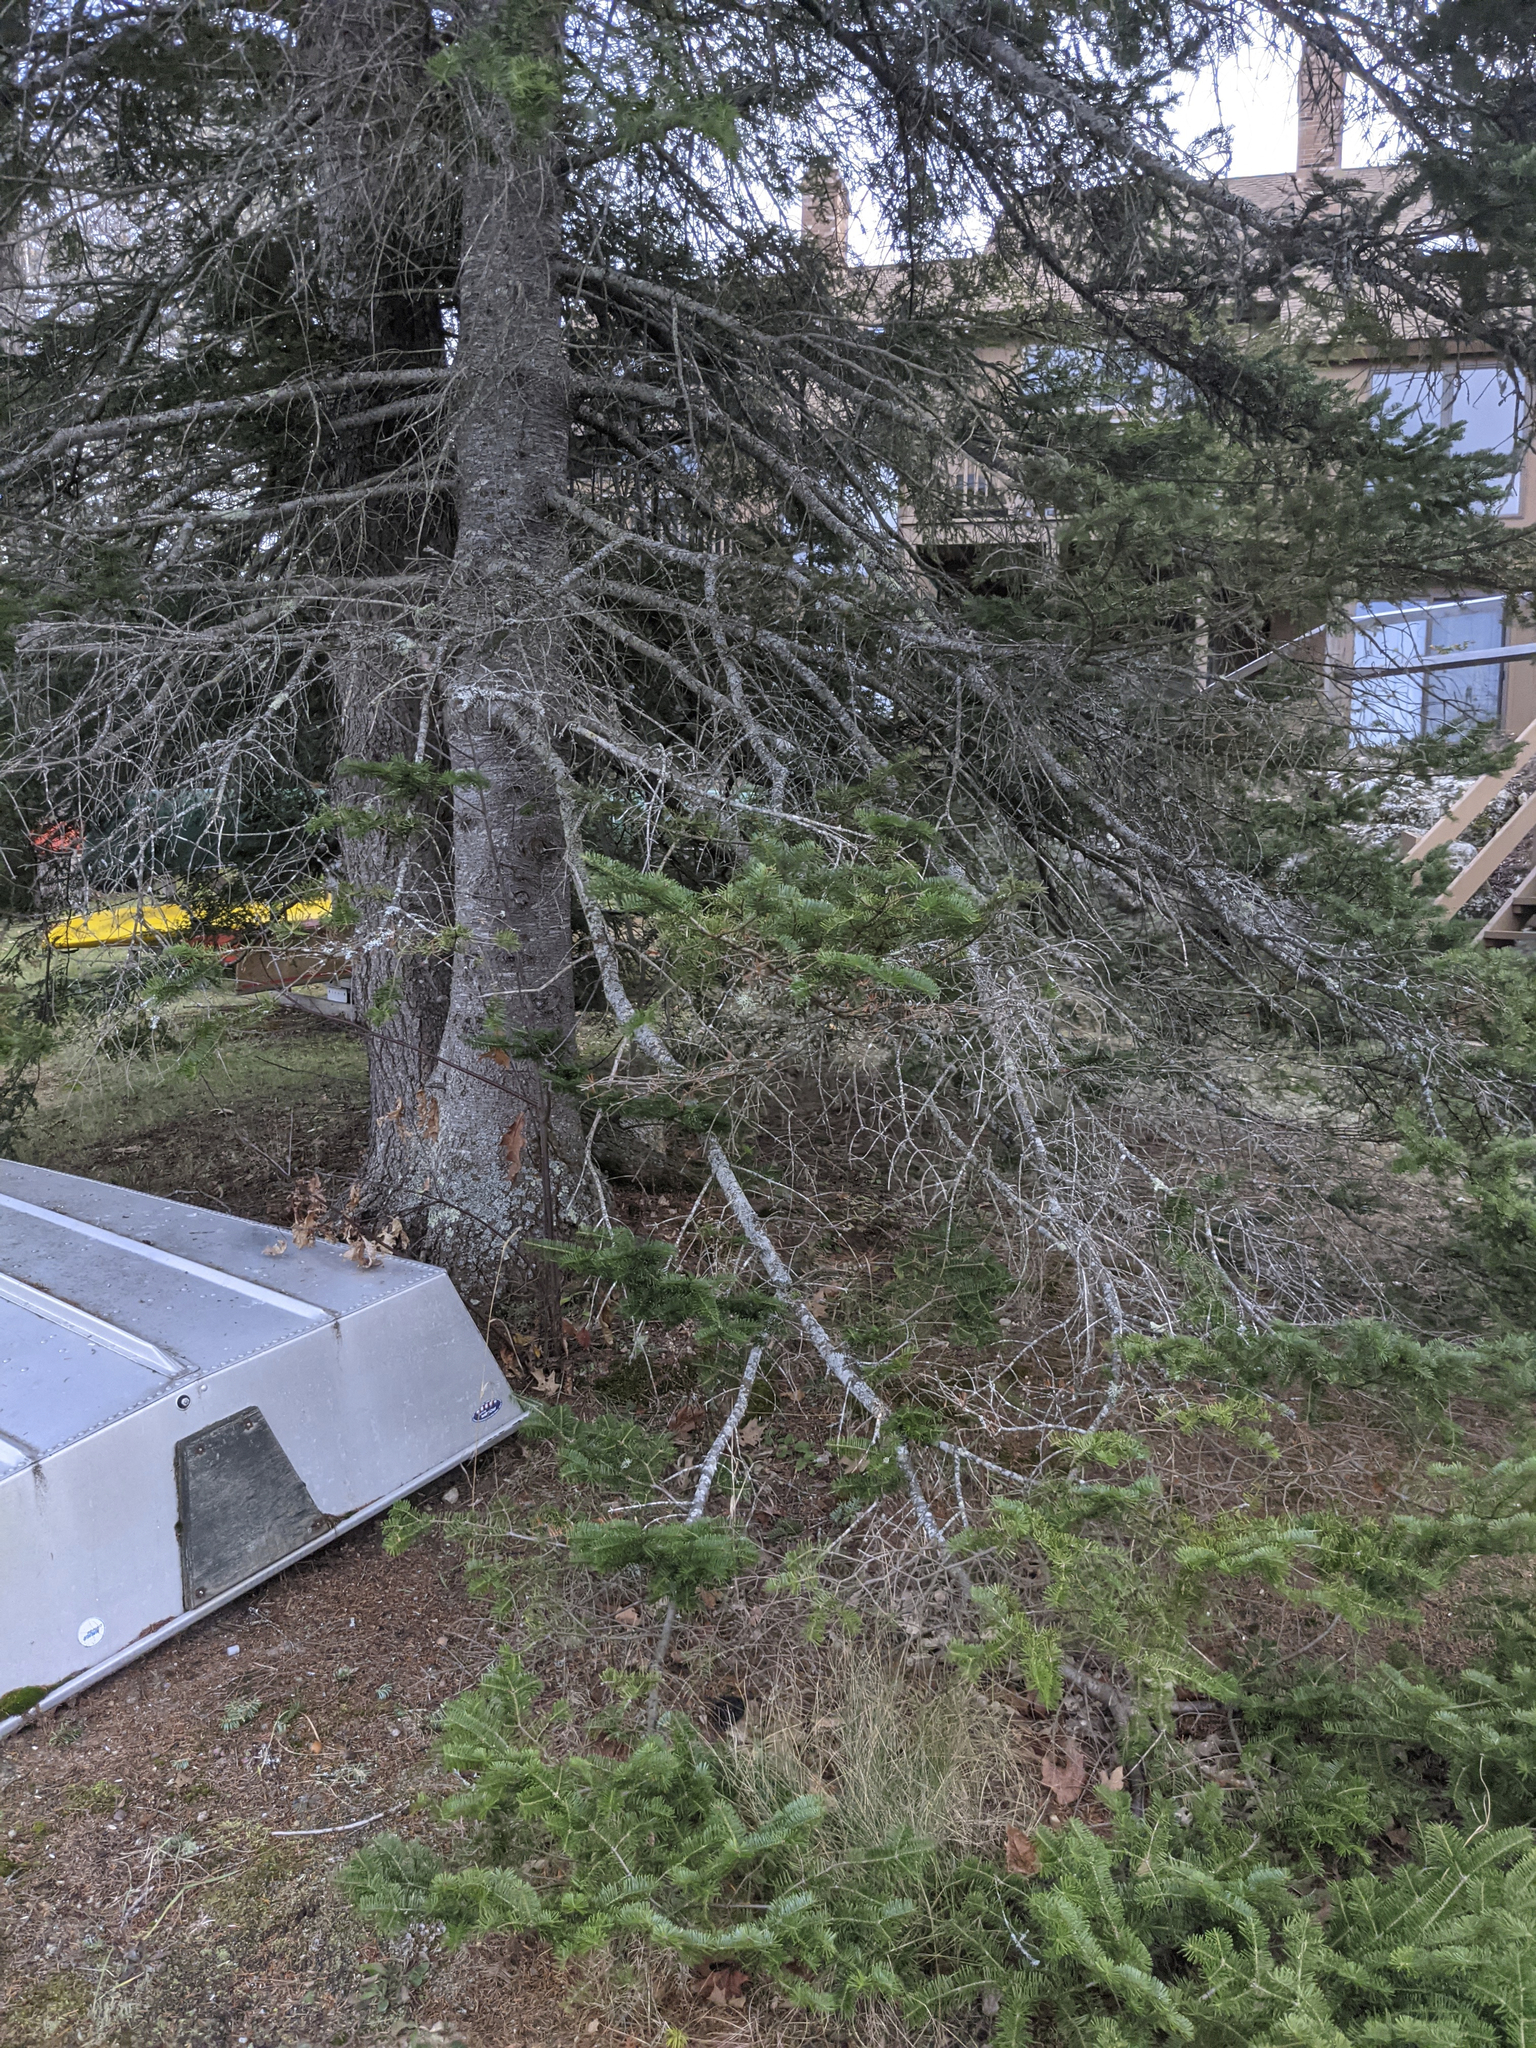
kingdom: Plantae
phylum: Tracheophyta
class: Pinopsida
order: Pinales
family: Pinaceae
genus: Abies
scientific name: Abies balsamea
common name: Balsam fir
